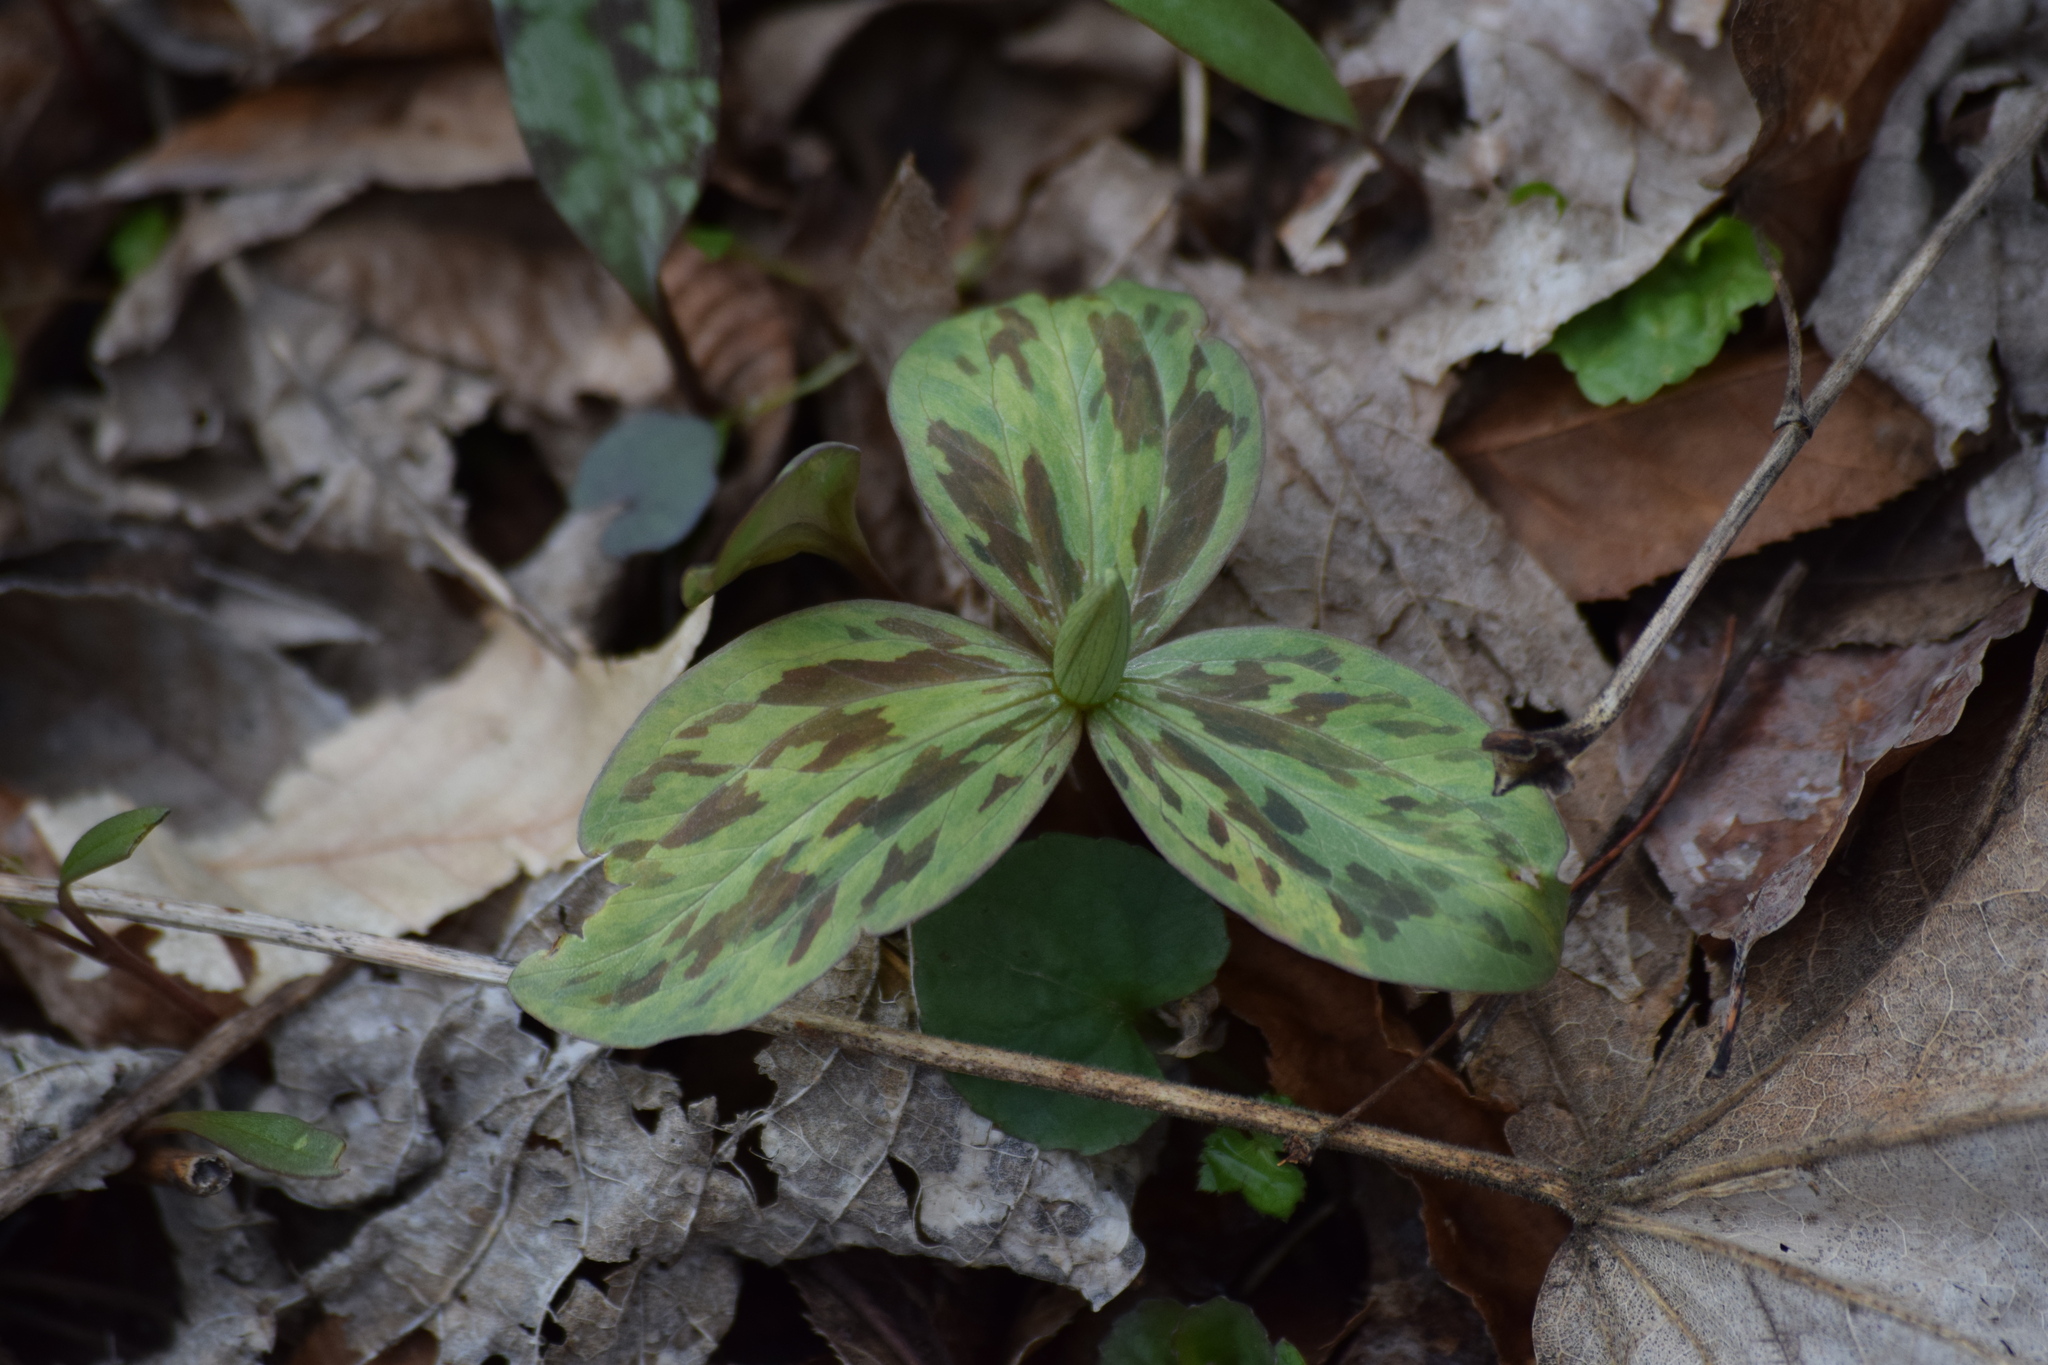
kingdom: Plantae
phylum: Tracheophyta
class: Liliopsida
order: Liliales
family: Melanthiaceae
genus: Trillium
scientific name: Trillium sessile
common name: Sessile trillium
